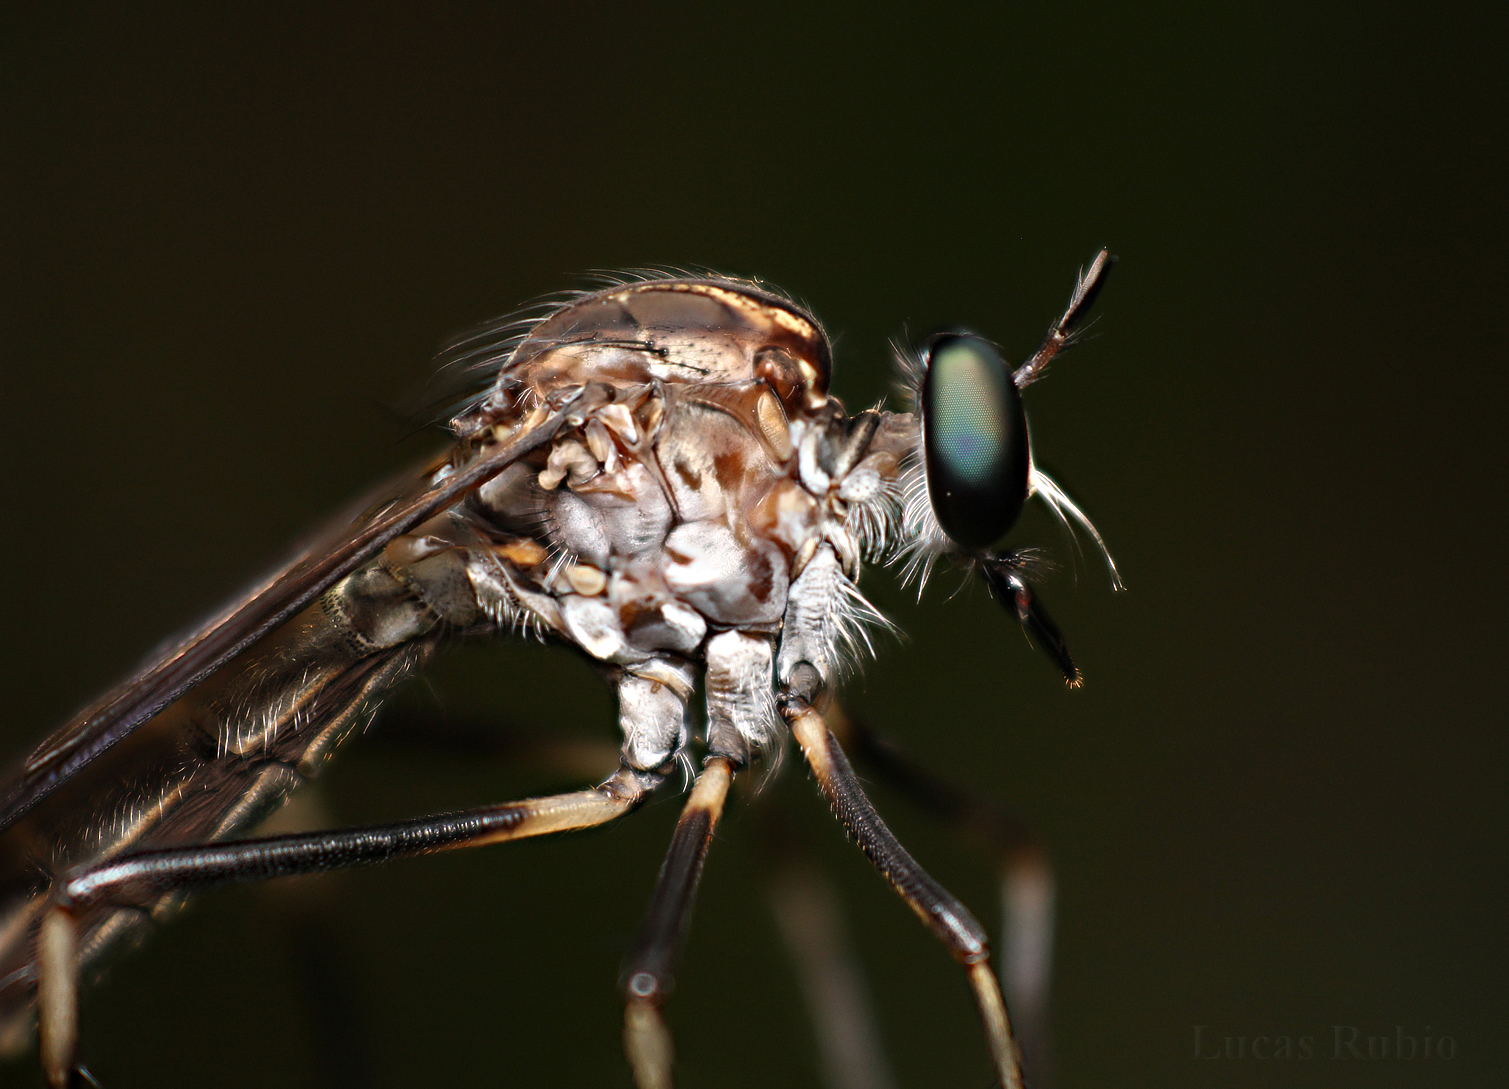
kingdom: Animalia
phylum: Arthropoda
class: Insecta
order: Diptera
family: Asilidae
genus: Archilestris
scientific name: Archilestris capnopterus
